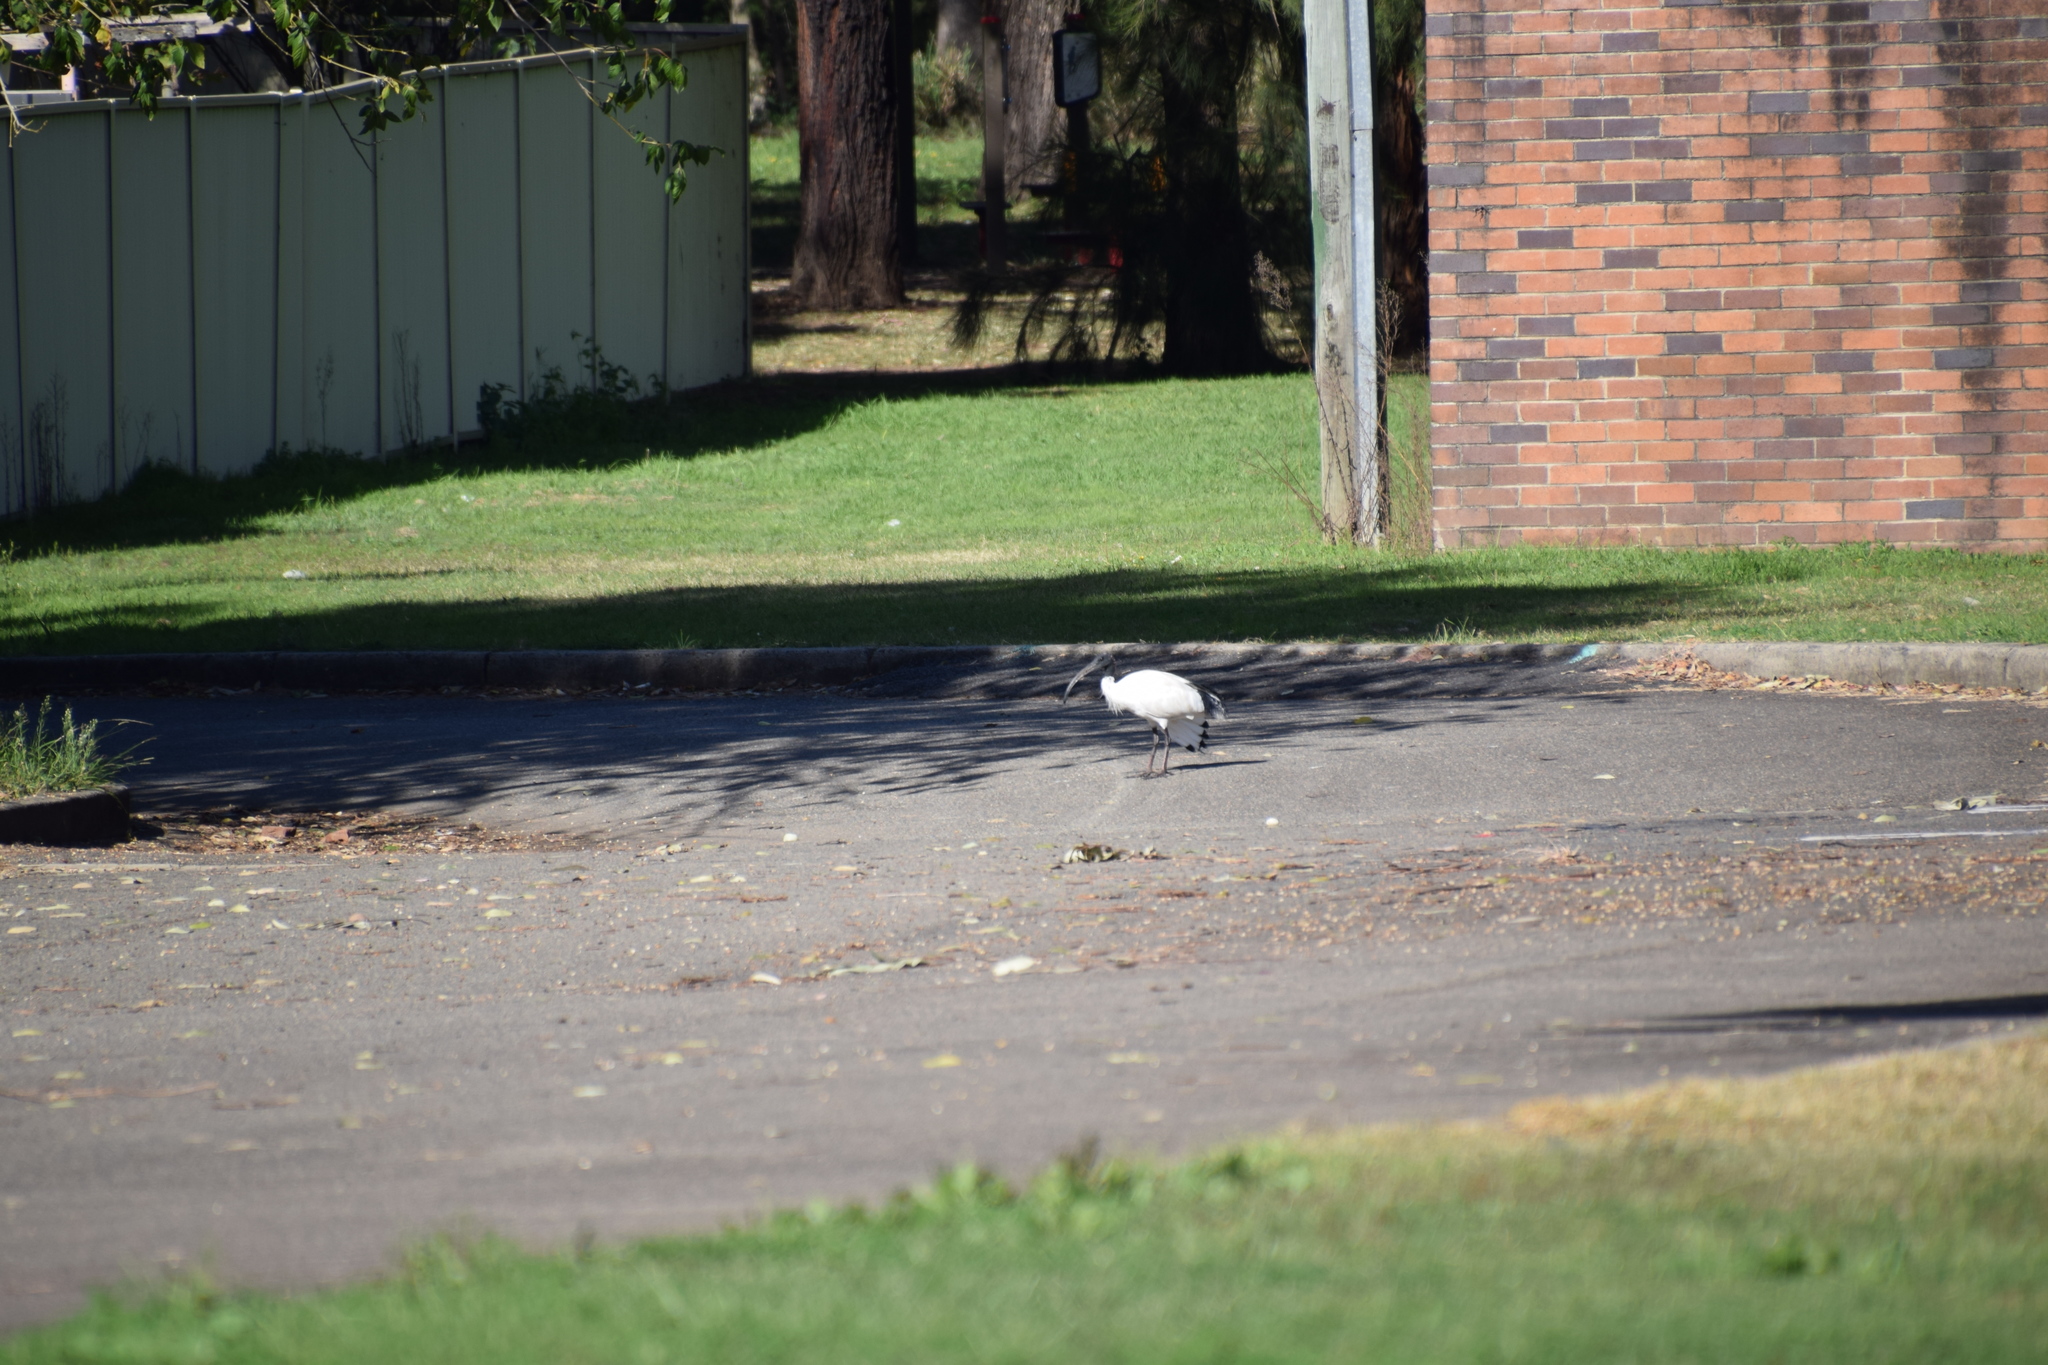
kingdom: Animalia
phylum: Chordata
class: Aves
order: Pelecaniformes
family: Threskiornithidae
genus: Threskiornis
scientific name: Threskiornis molucca
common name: Australian white ibis
